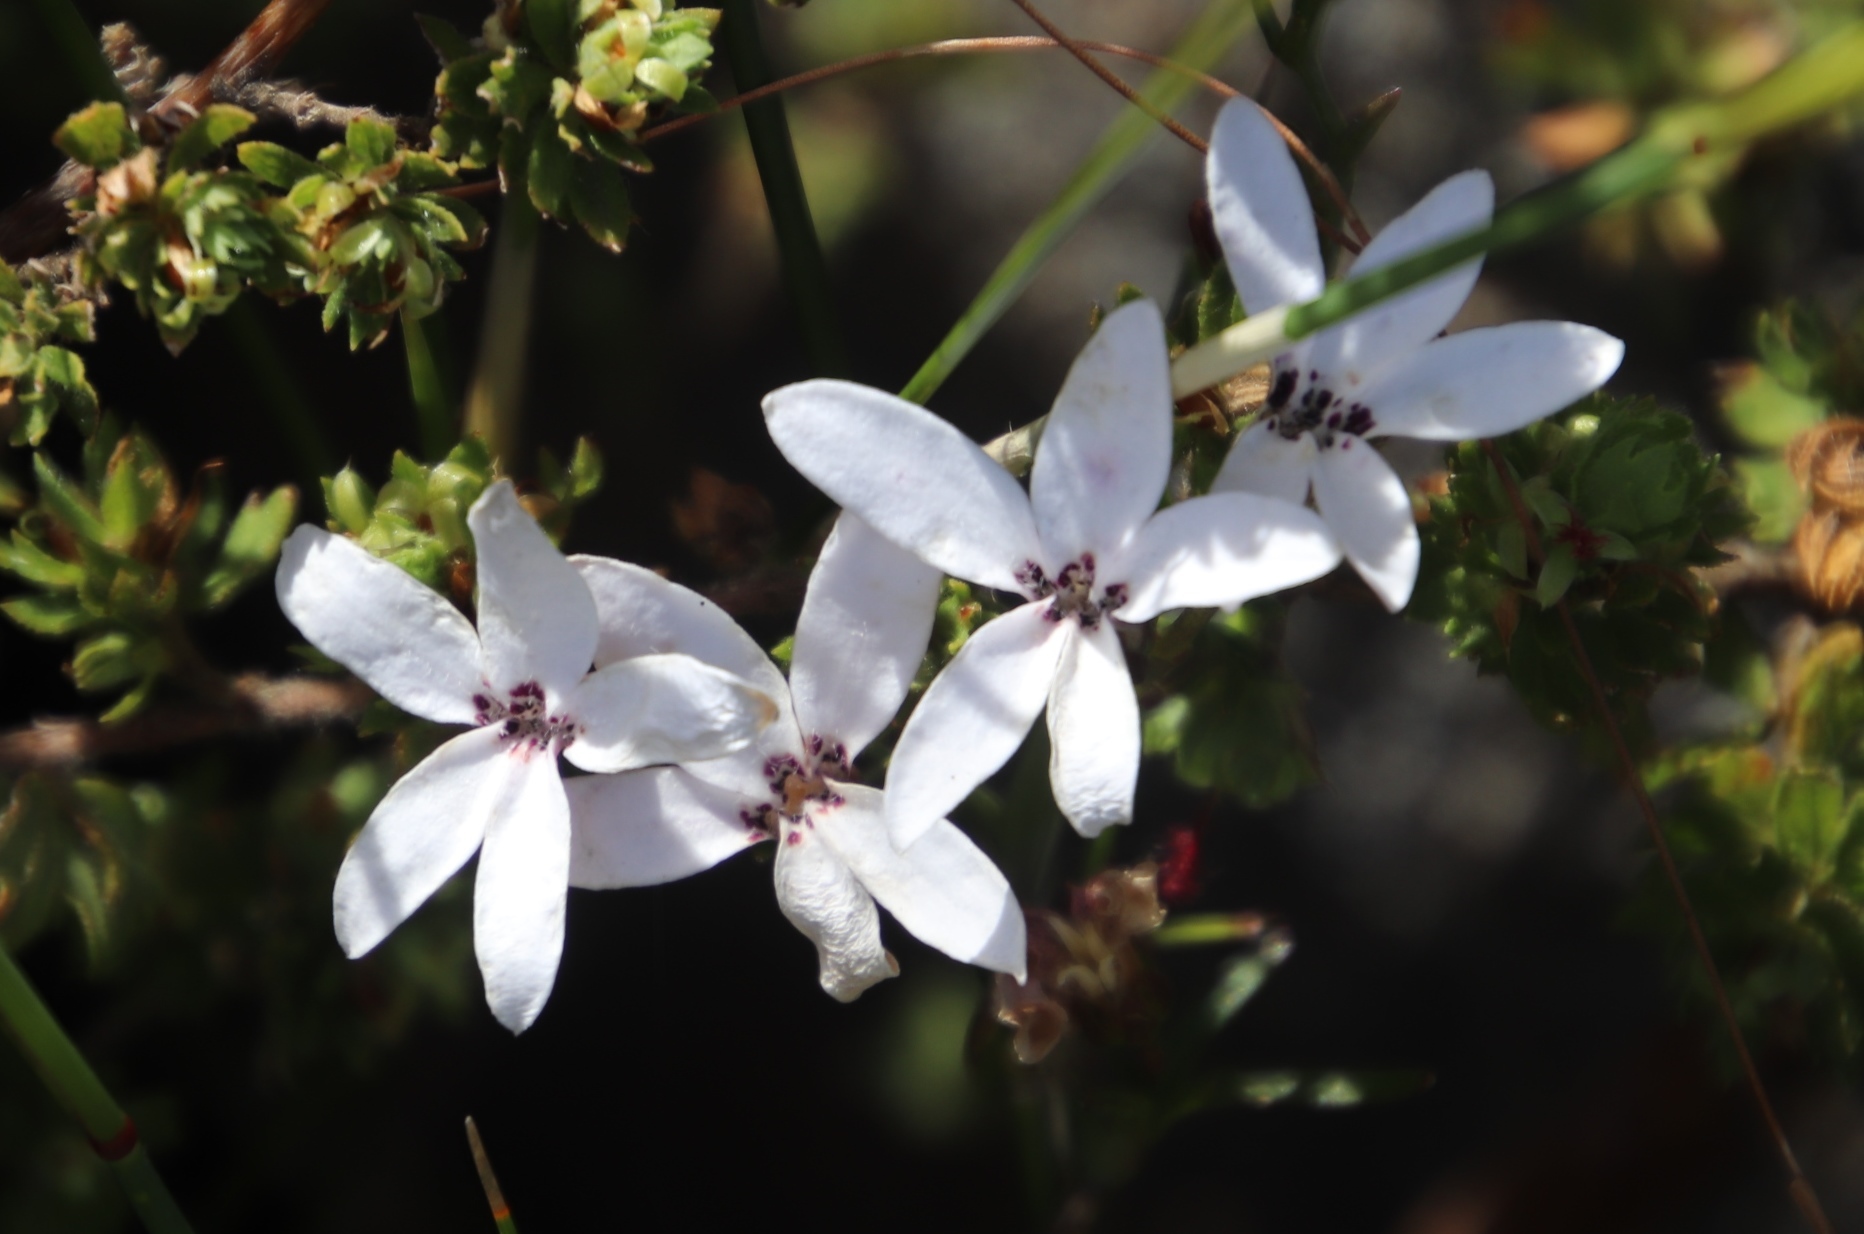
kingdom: Plantae
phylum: Tracheophyta
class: Magnoliopsida
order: Asterales
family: Campanulaceae
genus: Cyphia
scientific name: Cyphia volubilis
